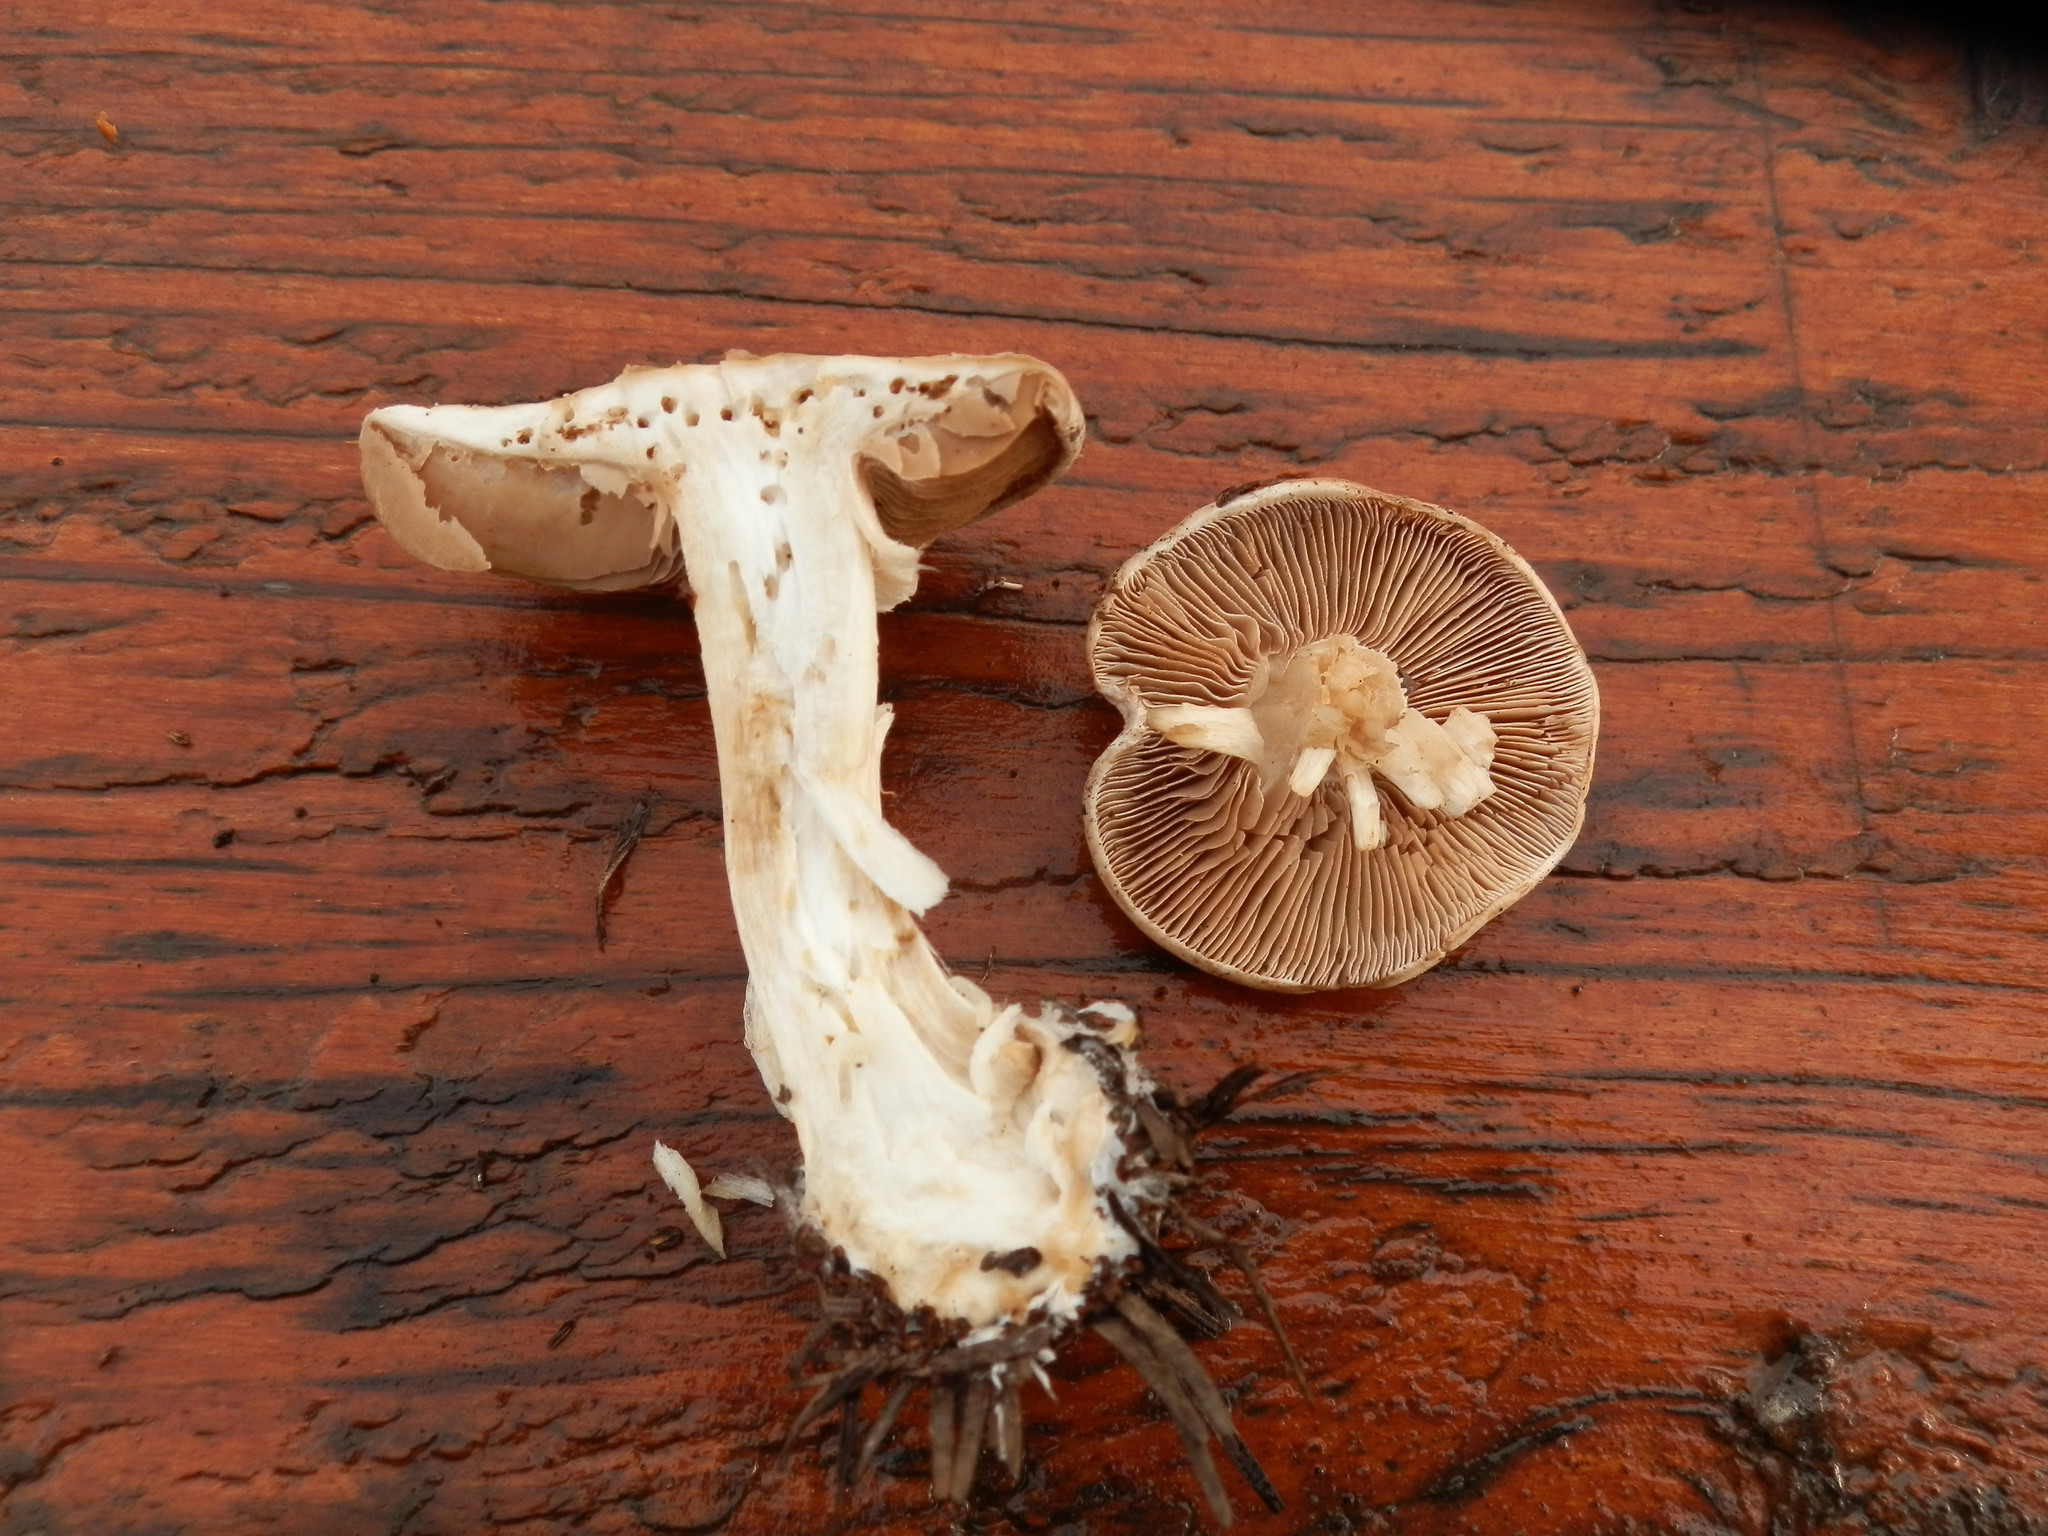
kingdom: Fungi
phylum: Basidiomycota
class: Agaricomycetes
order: Agaricales
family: Hymenogastraceae
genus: Hebeloma
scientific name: Hebeloma crustuliniforme
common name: Poison pie
